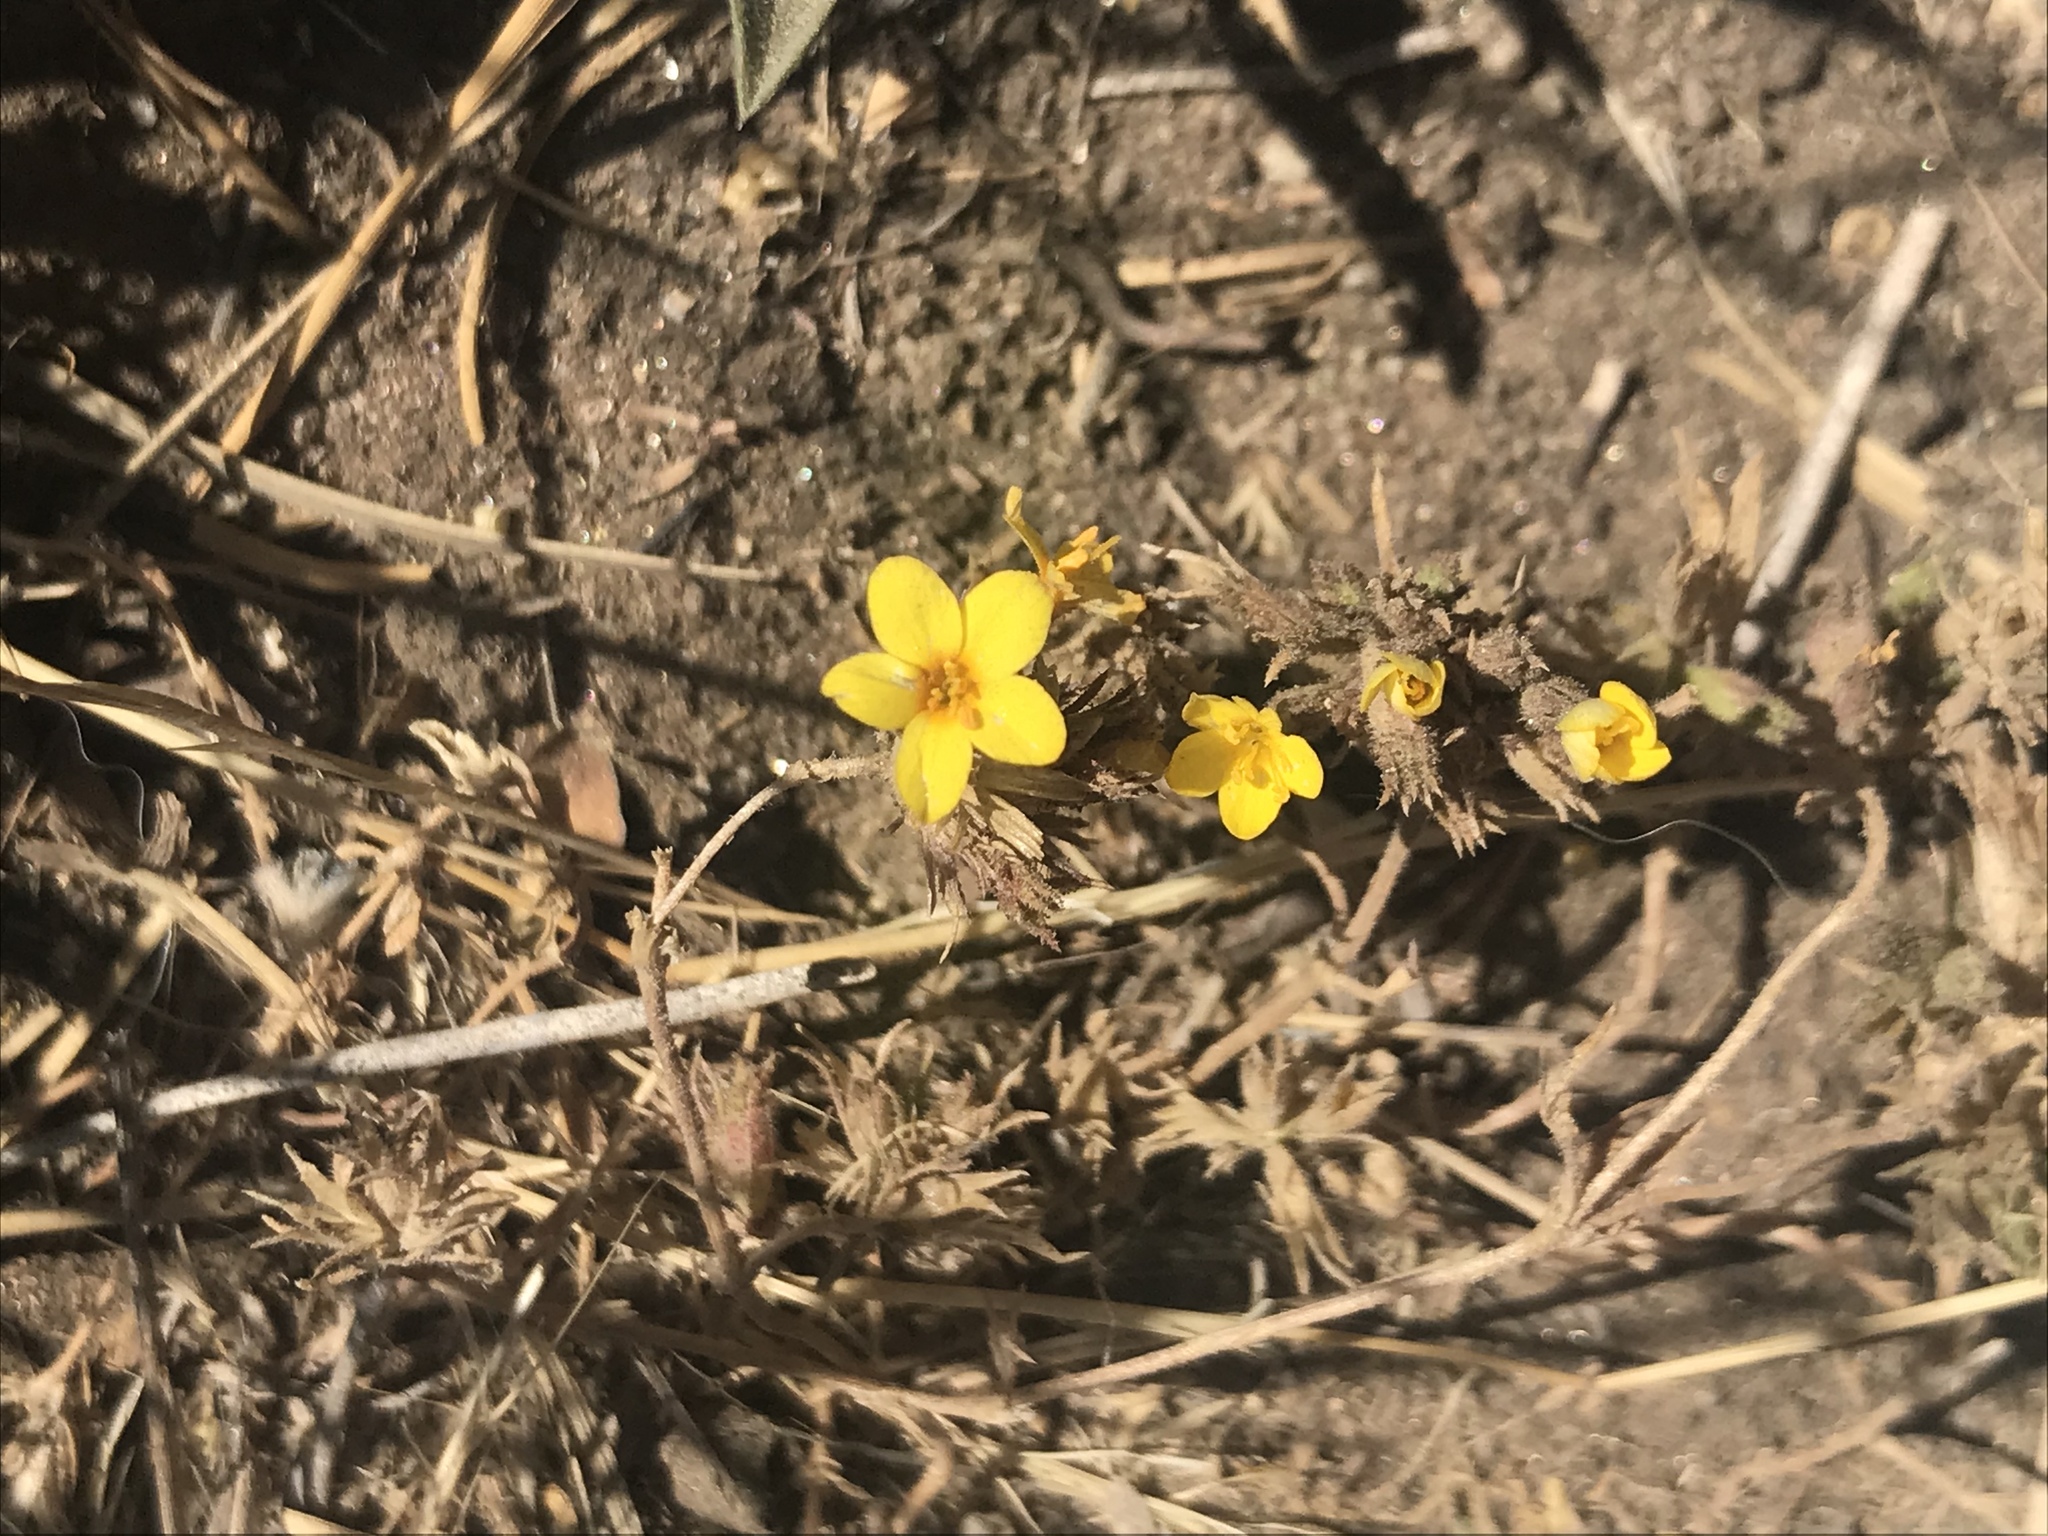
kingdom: Plantae
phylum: Tracheophyta
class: Magnoliopsida
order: Ericales
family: Polemoniaceae
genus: Leptosiphon
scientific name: Leptosiphon parviflorus
